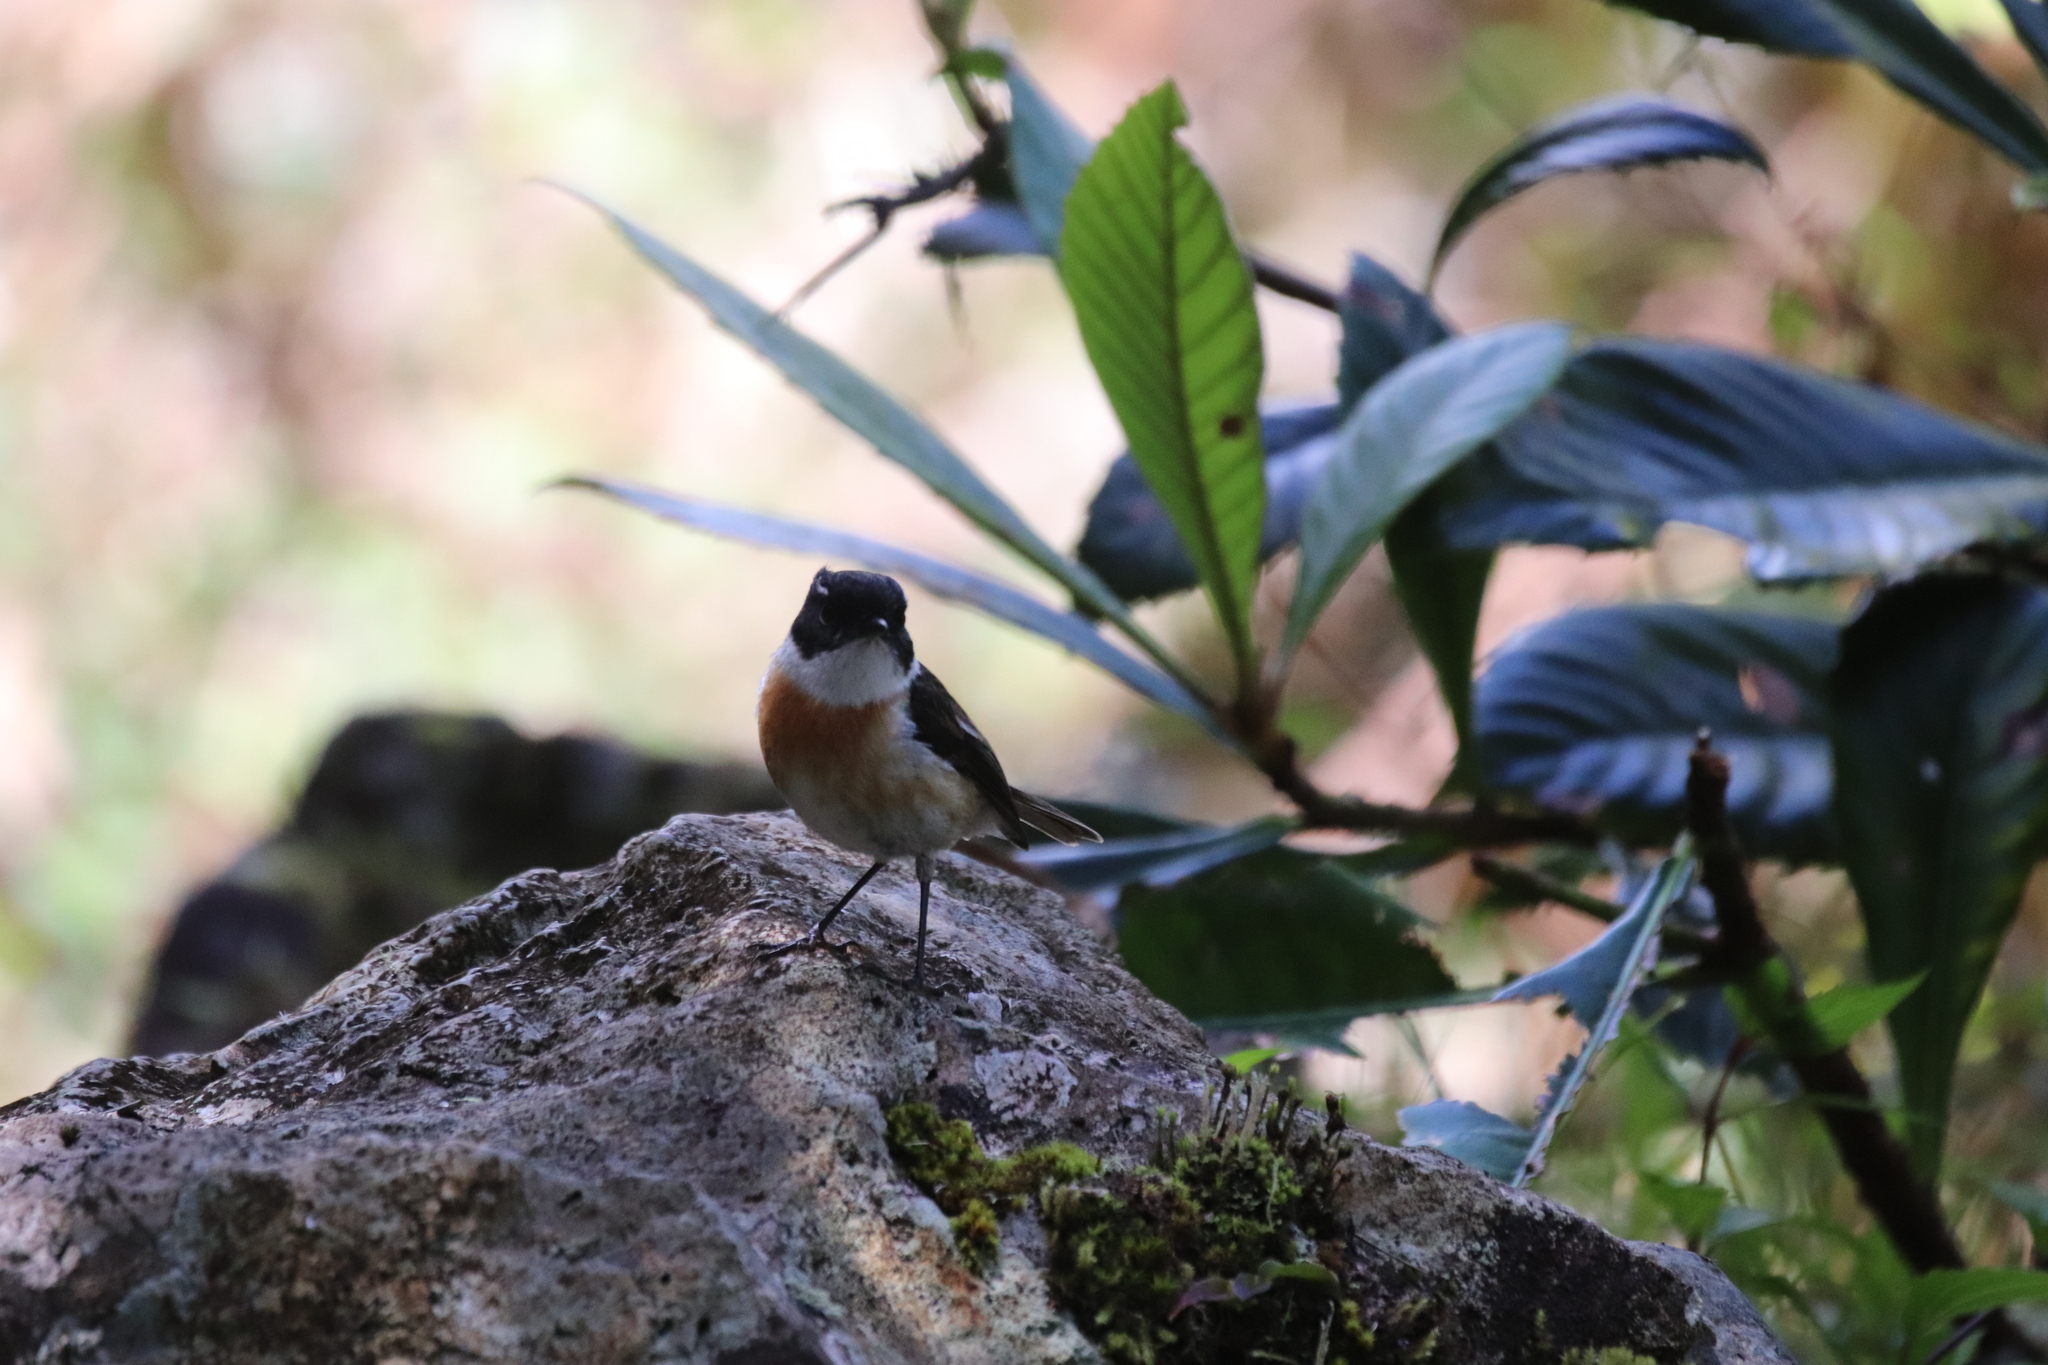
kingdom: Animalia
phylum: Chordata
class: Aves
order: Passeriformes
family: Muscicapidae
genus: Saxicola
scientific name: Saxicola tectes
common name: Reunion stonechat
